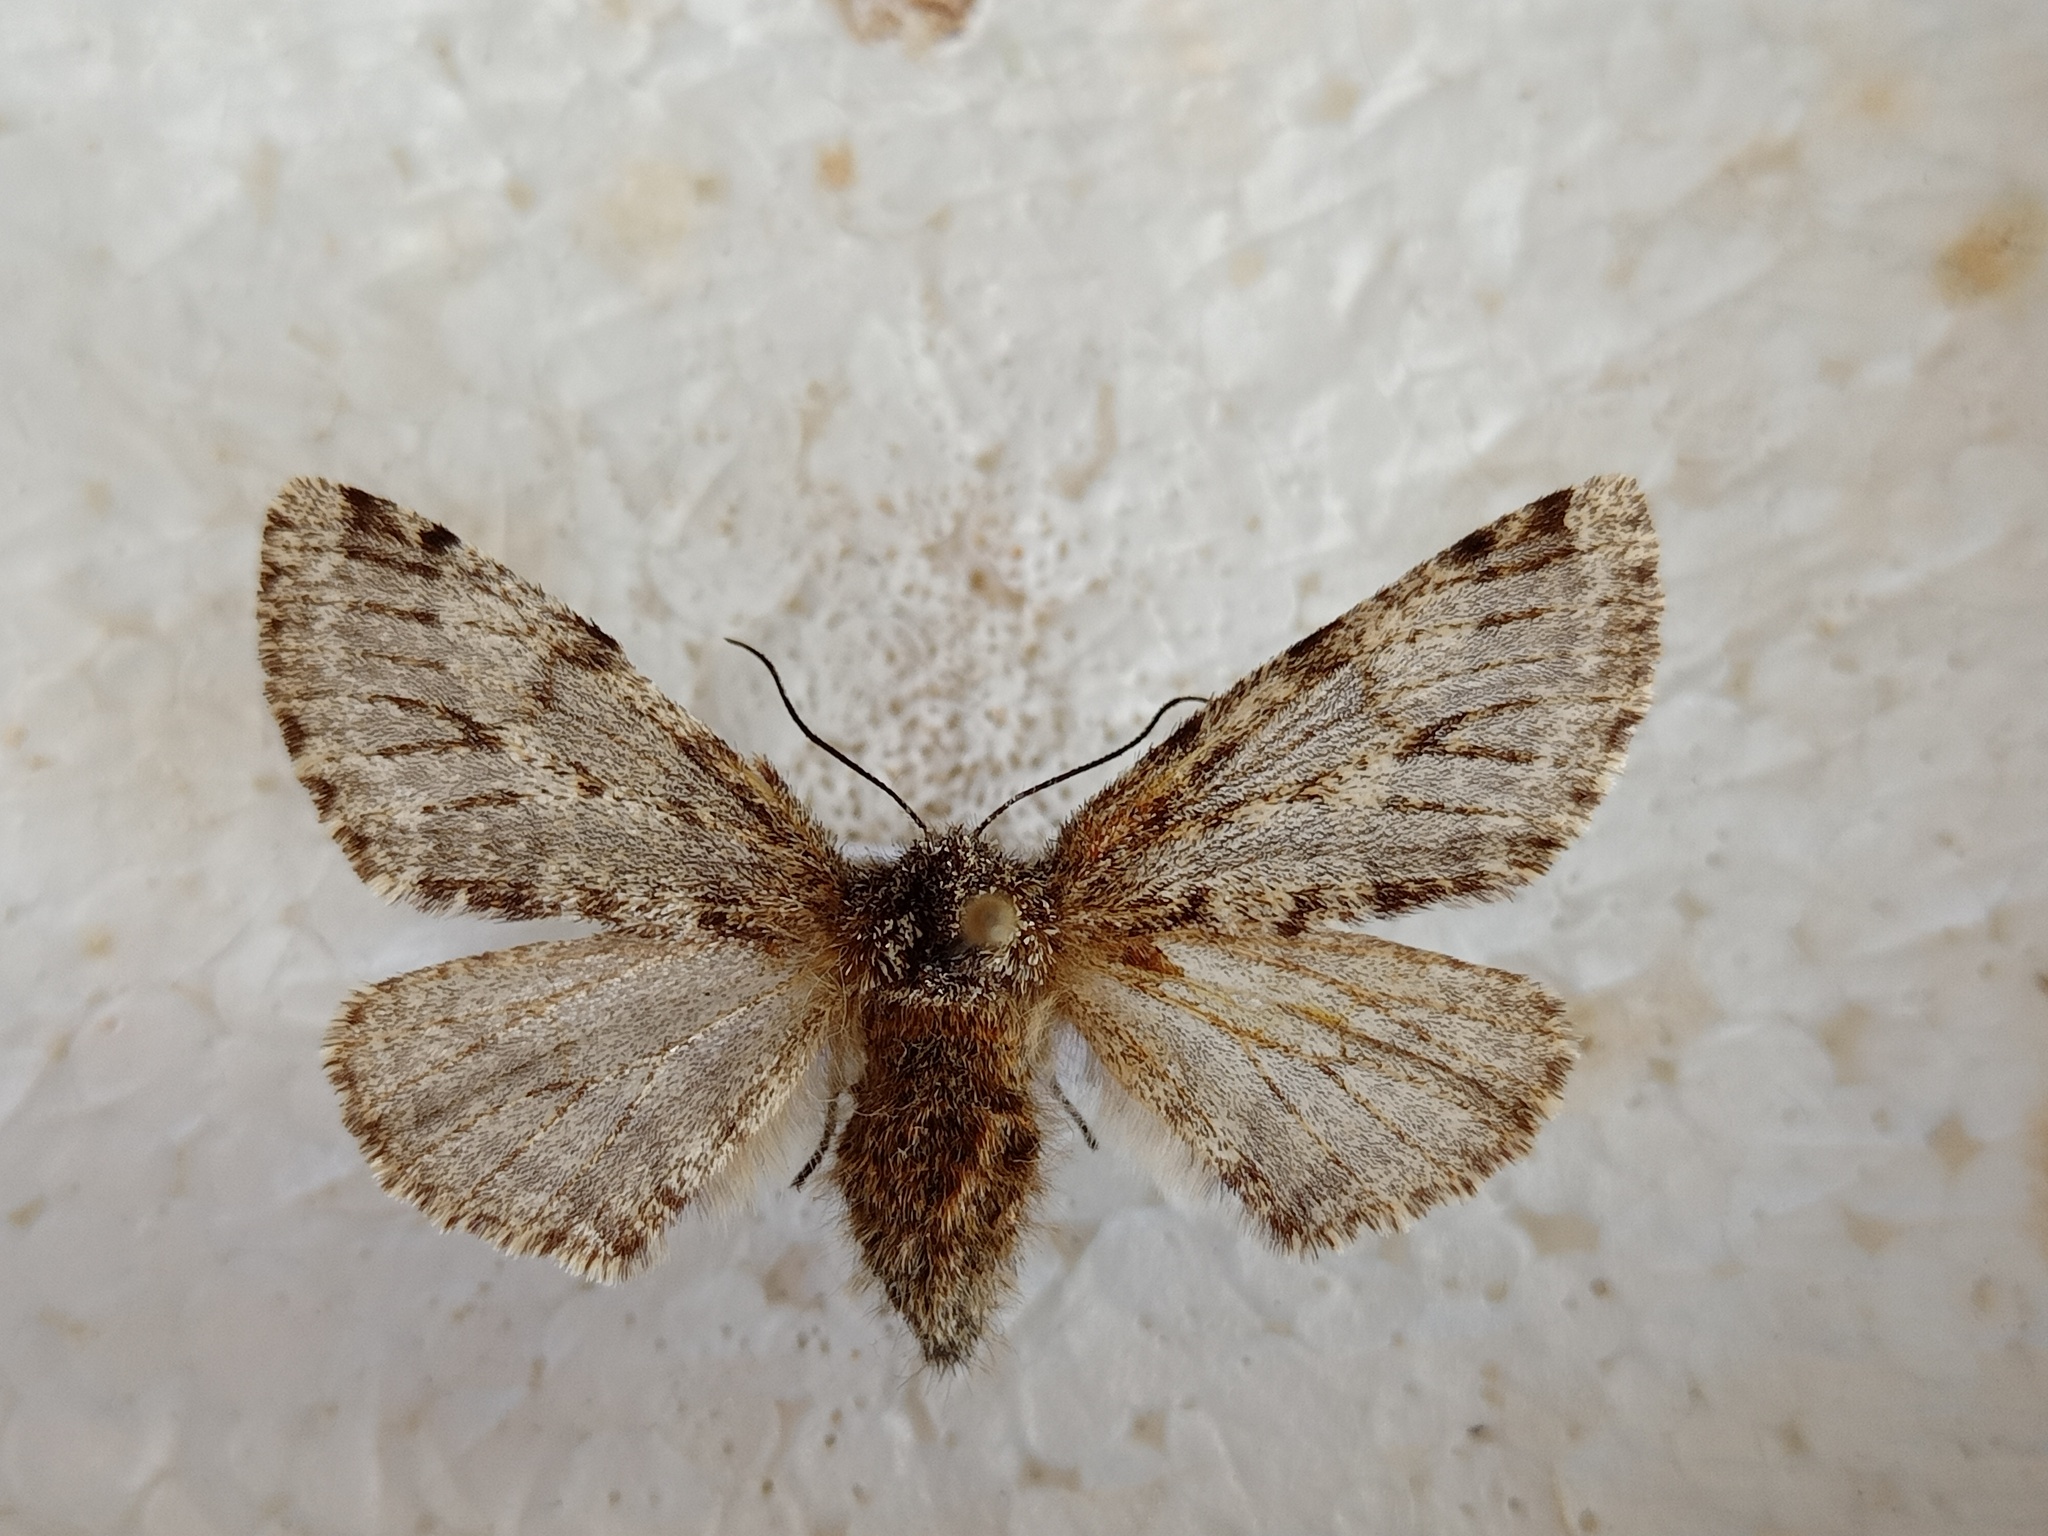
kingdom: Animalia
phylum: Arthropoda
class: Insecta
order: Lepidoptera
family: Geometridae
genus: Lycia
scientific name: Lycia hirtaria
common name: Brindled beauty
